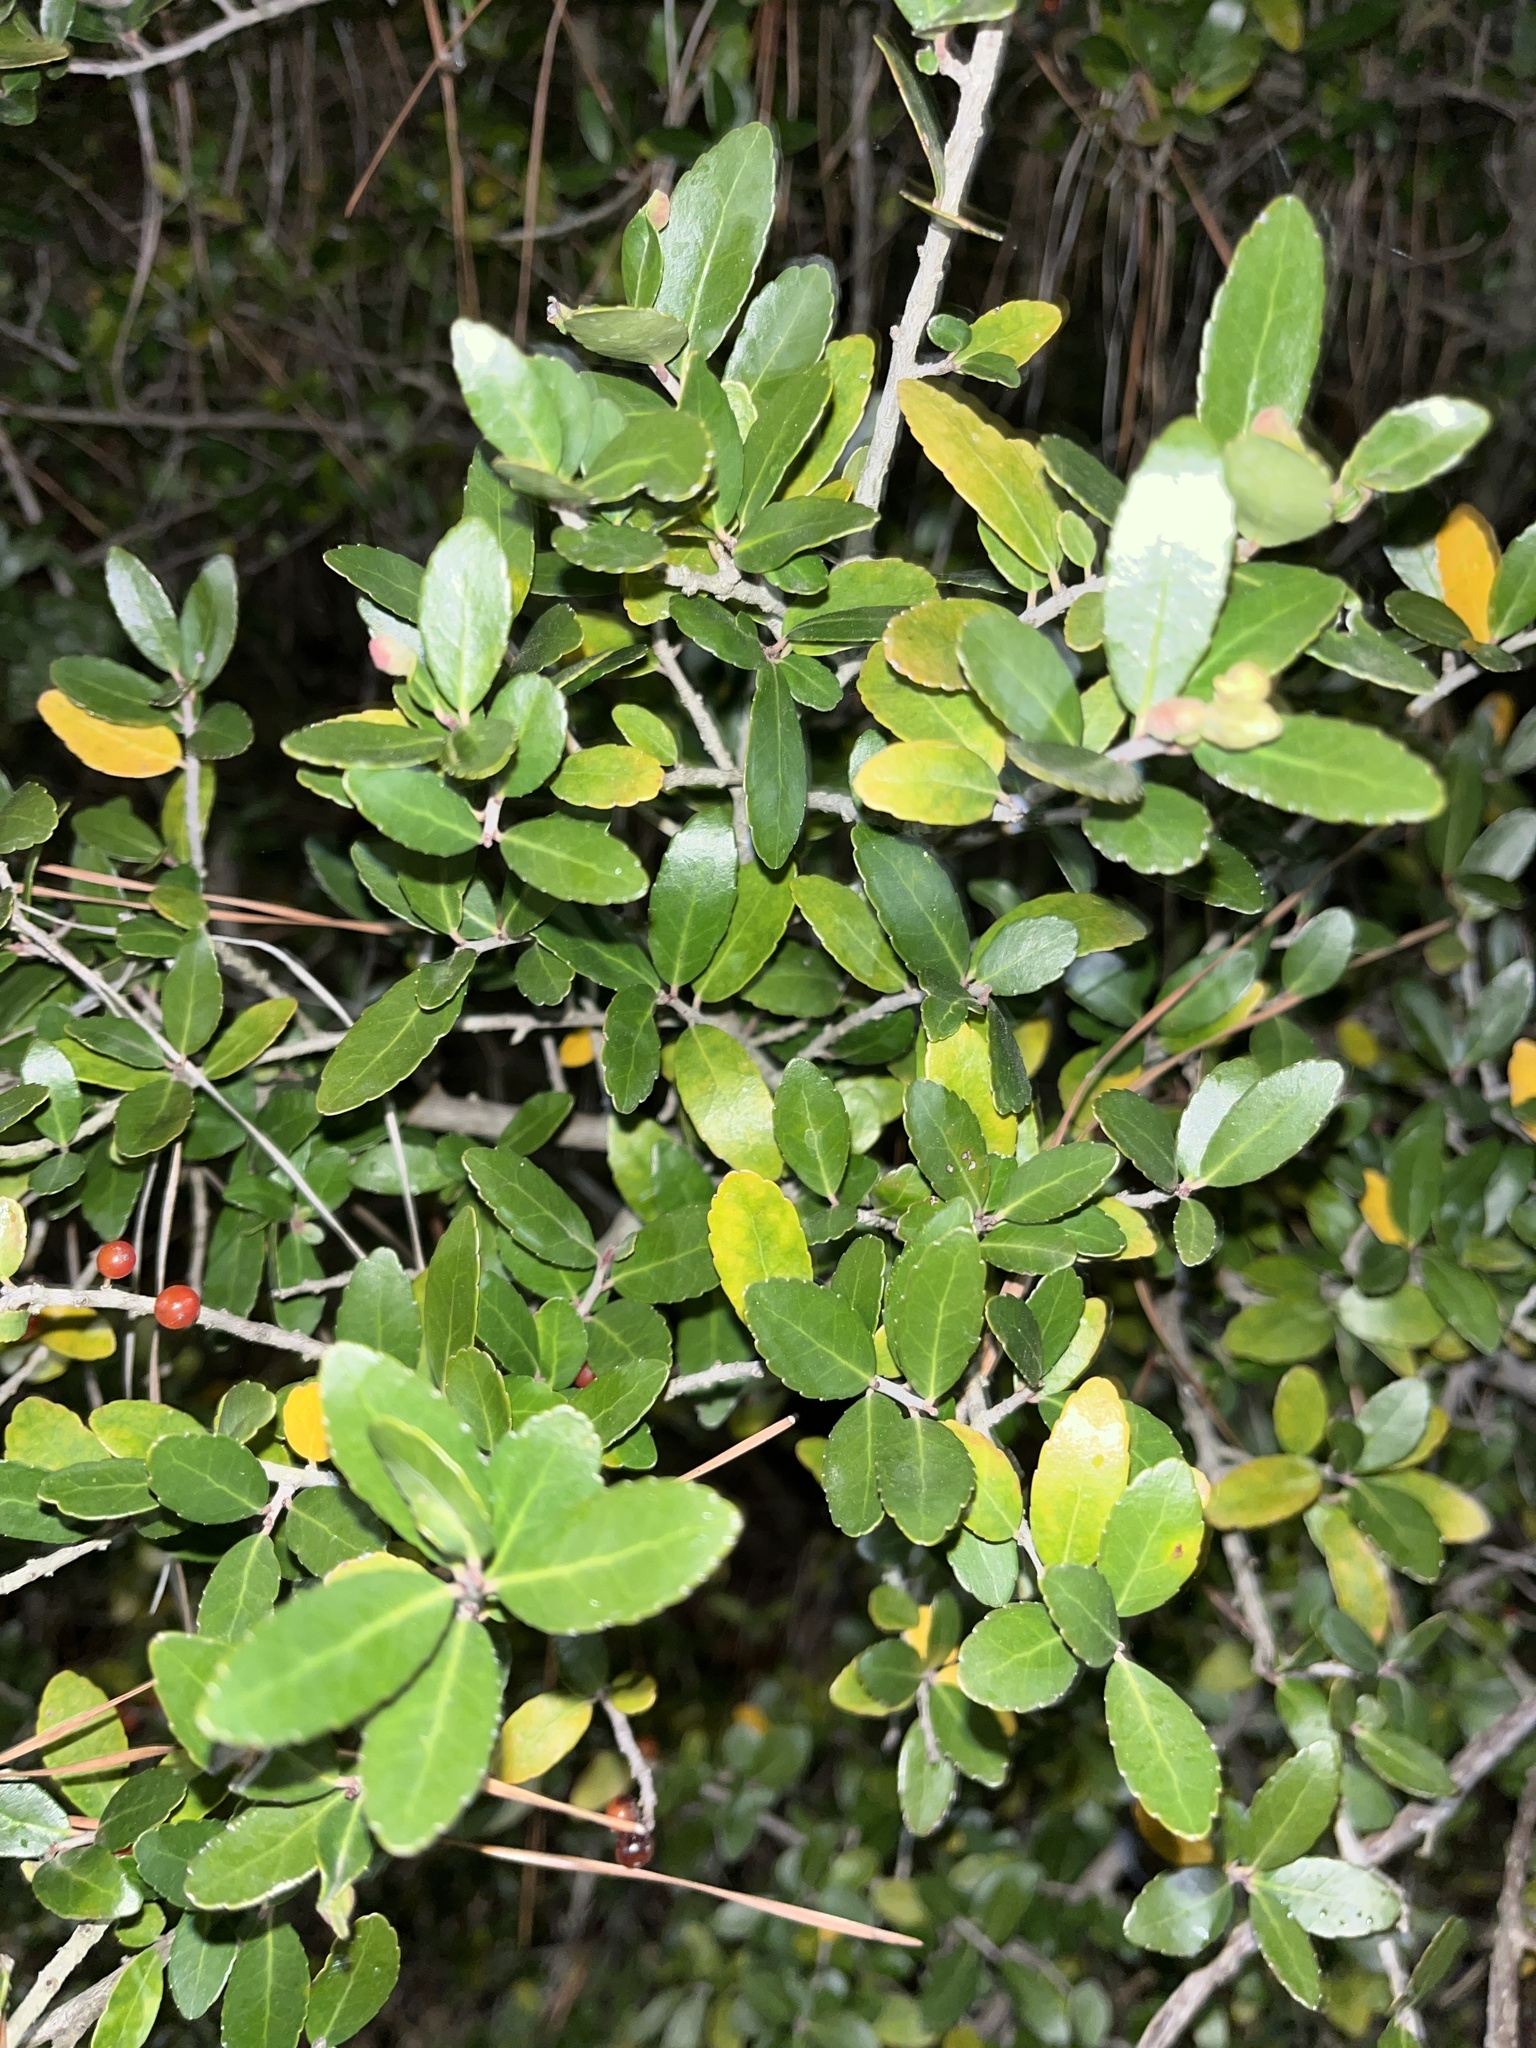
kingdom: Plantae
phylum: Tracheophyta
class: Magnoliopsida
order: Aquifoliales
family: Aquifoliaceae
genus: Ilex
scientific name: Ilex vomitoria
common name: Yaupon holly
